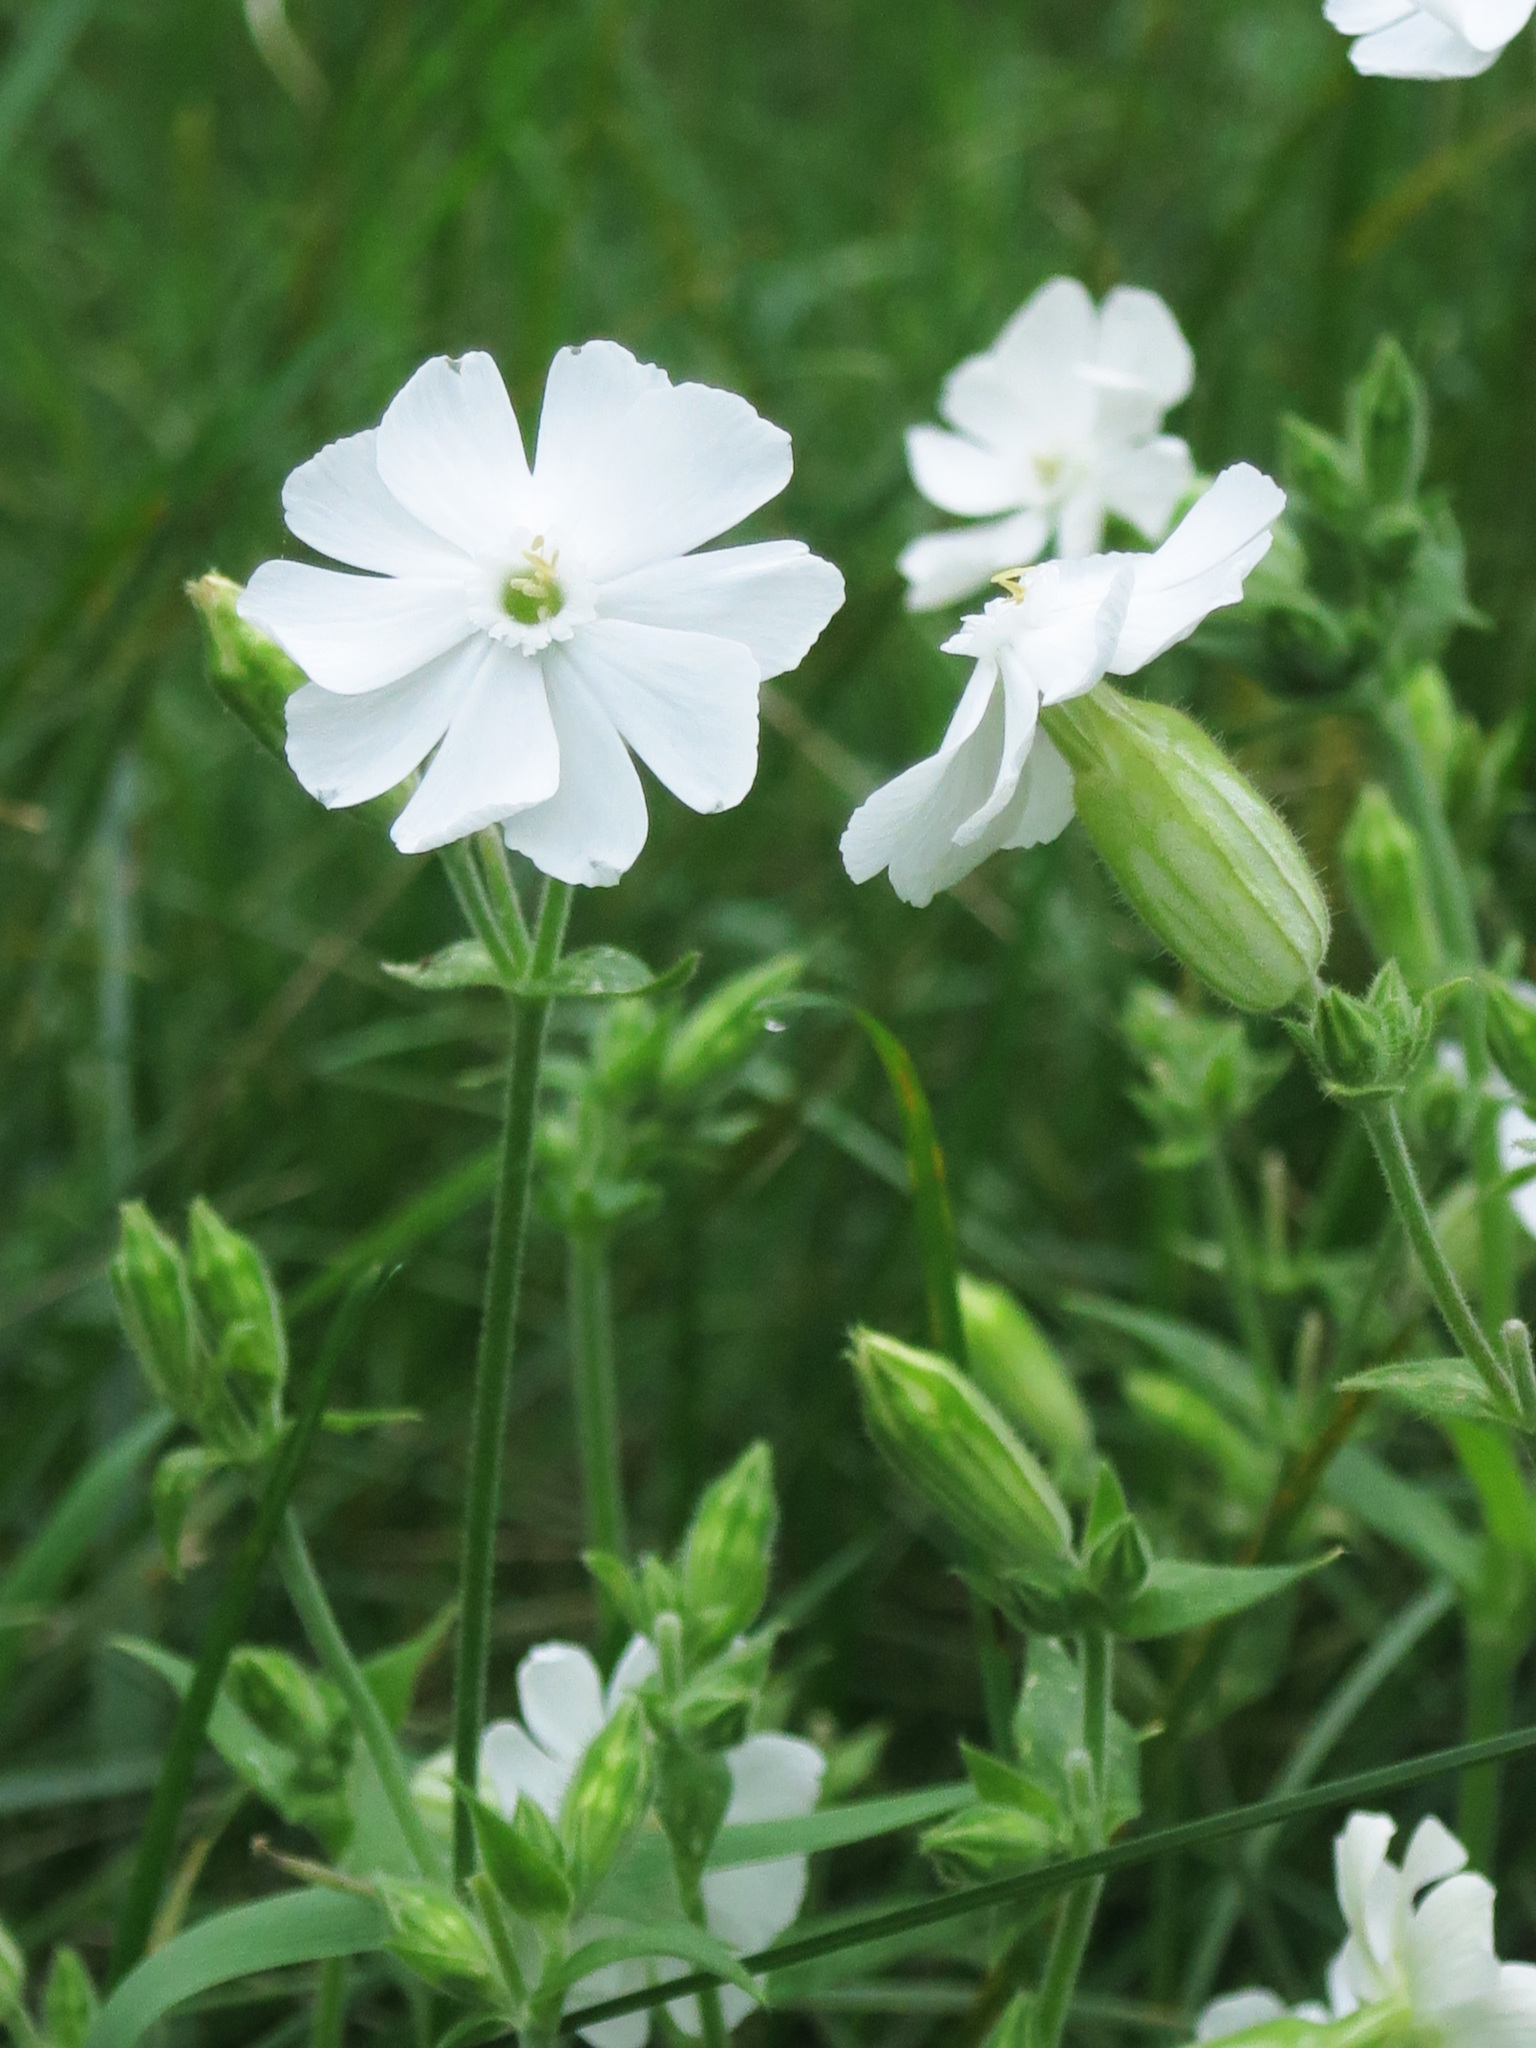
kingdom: Plantae
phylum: Tracheophyta
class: Magnoliopsida
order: Caryophyllales
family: Caryophyllaceae
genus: Silene
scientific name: Silene latifolia
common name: White campion
